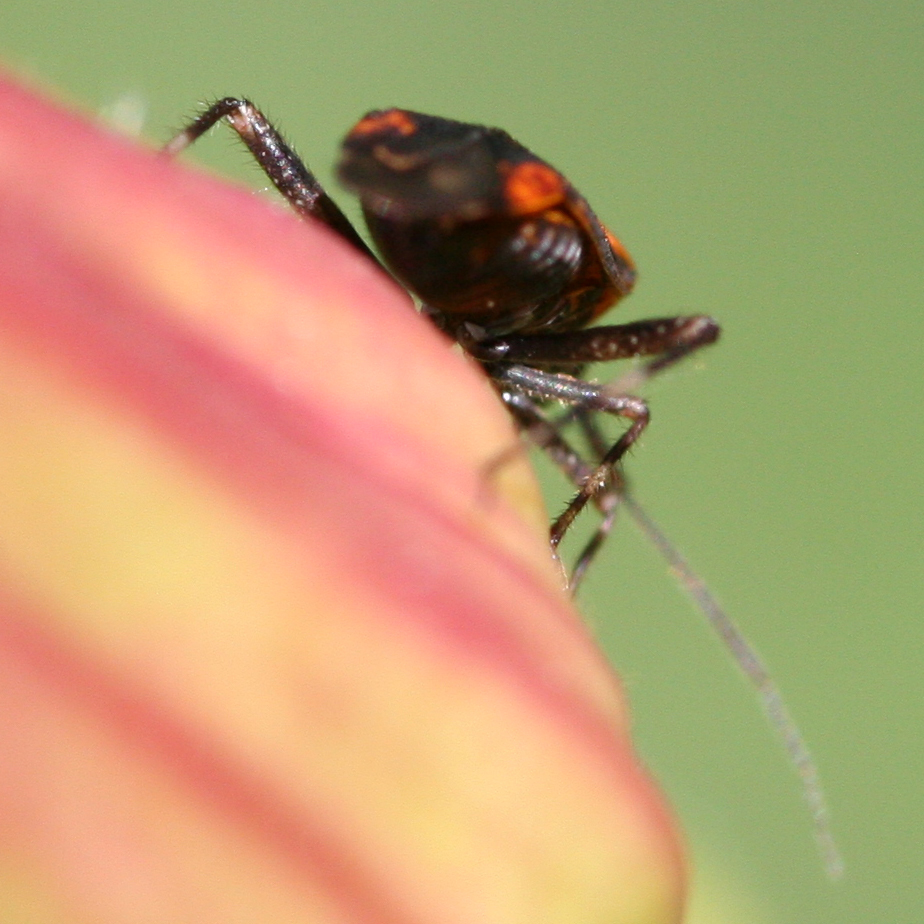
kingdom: Animalia
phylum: Arthropoda
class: Insecta
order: Hemiptera
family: Miridae
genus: Taedia
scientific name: Taedia scrupea
